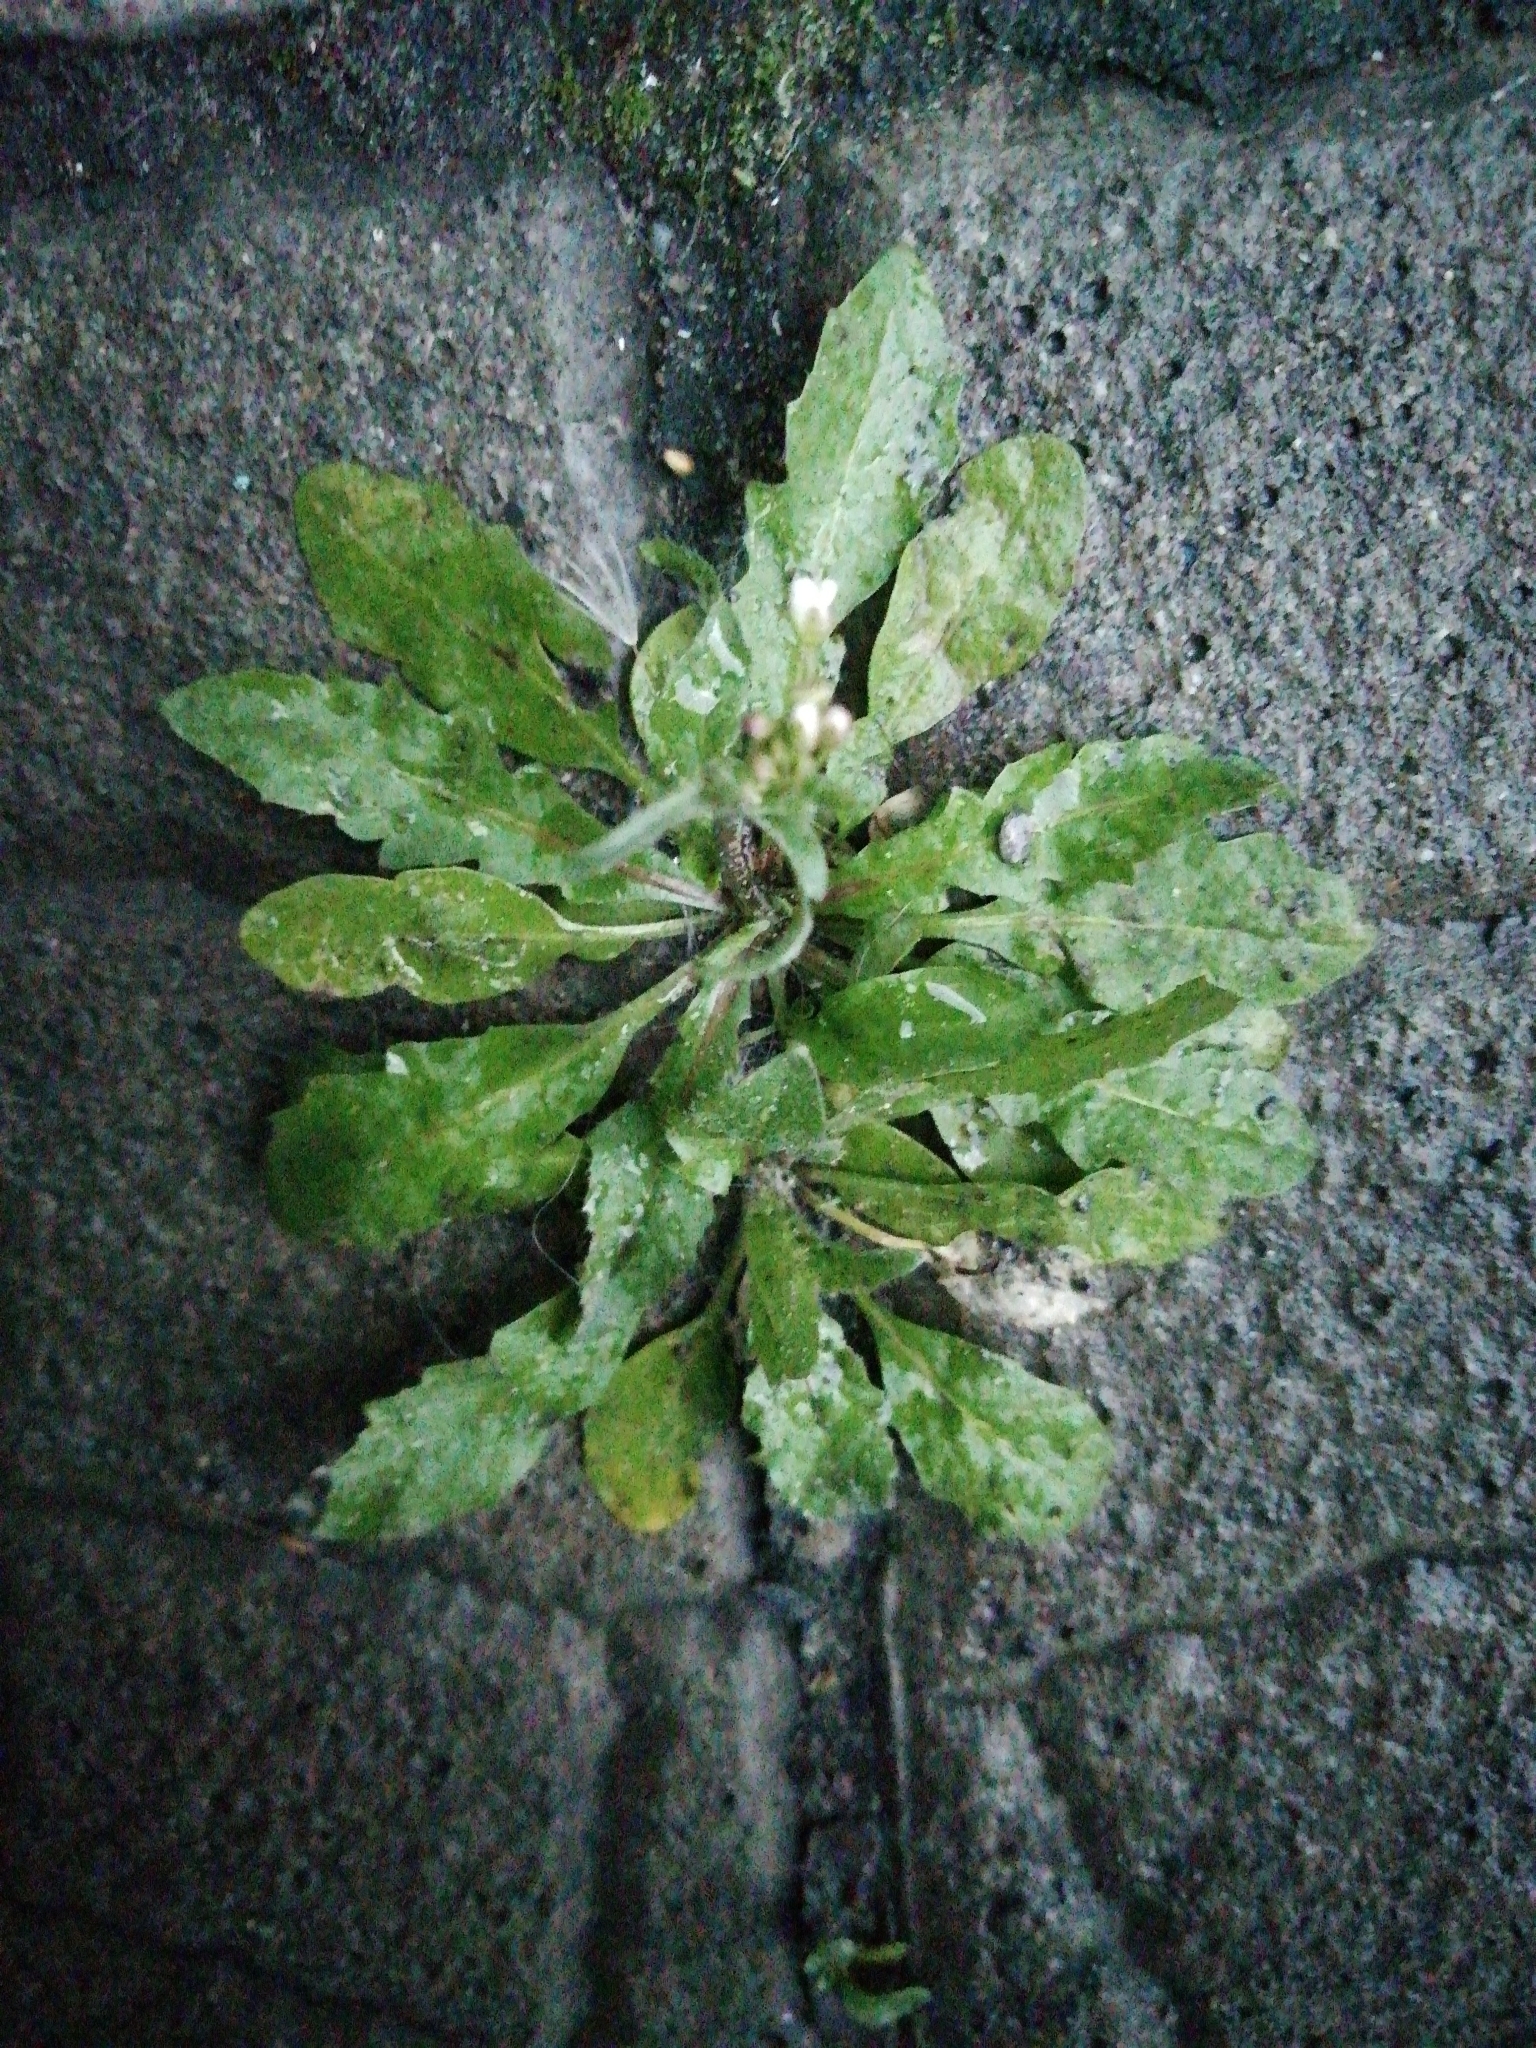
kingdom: Plantae
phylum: Tracheophyta
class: Magnoliopsida
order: Brassicales
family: Brassicaceae
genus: Capsella
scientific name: Capsella bursa-pastoris
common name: Shepherd's purse
